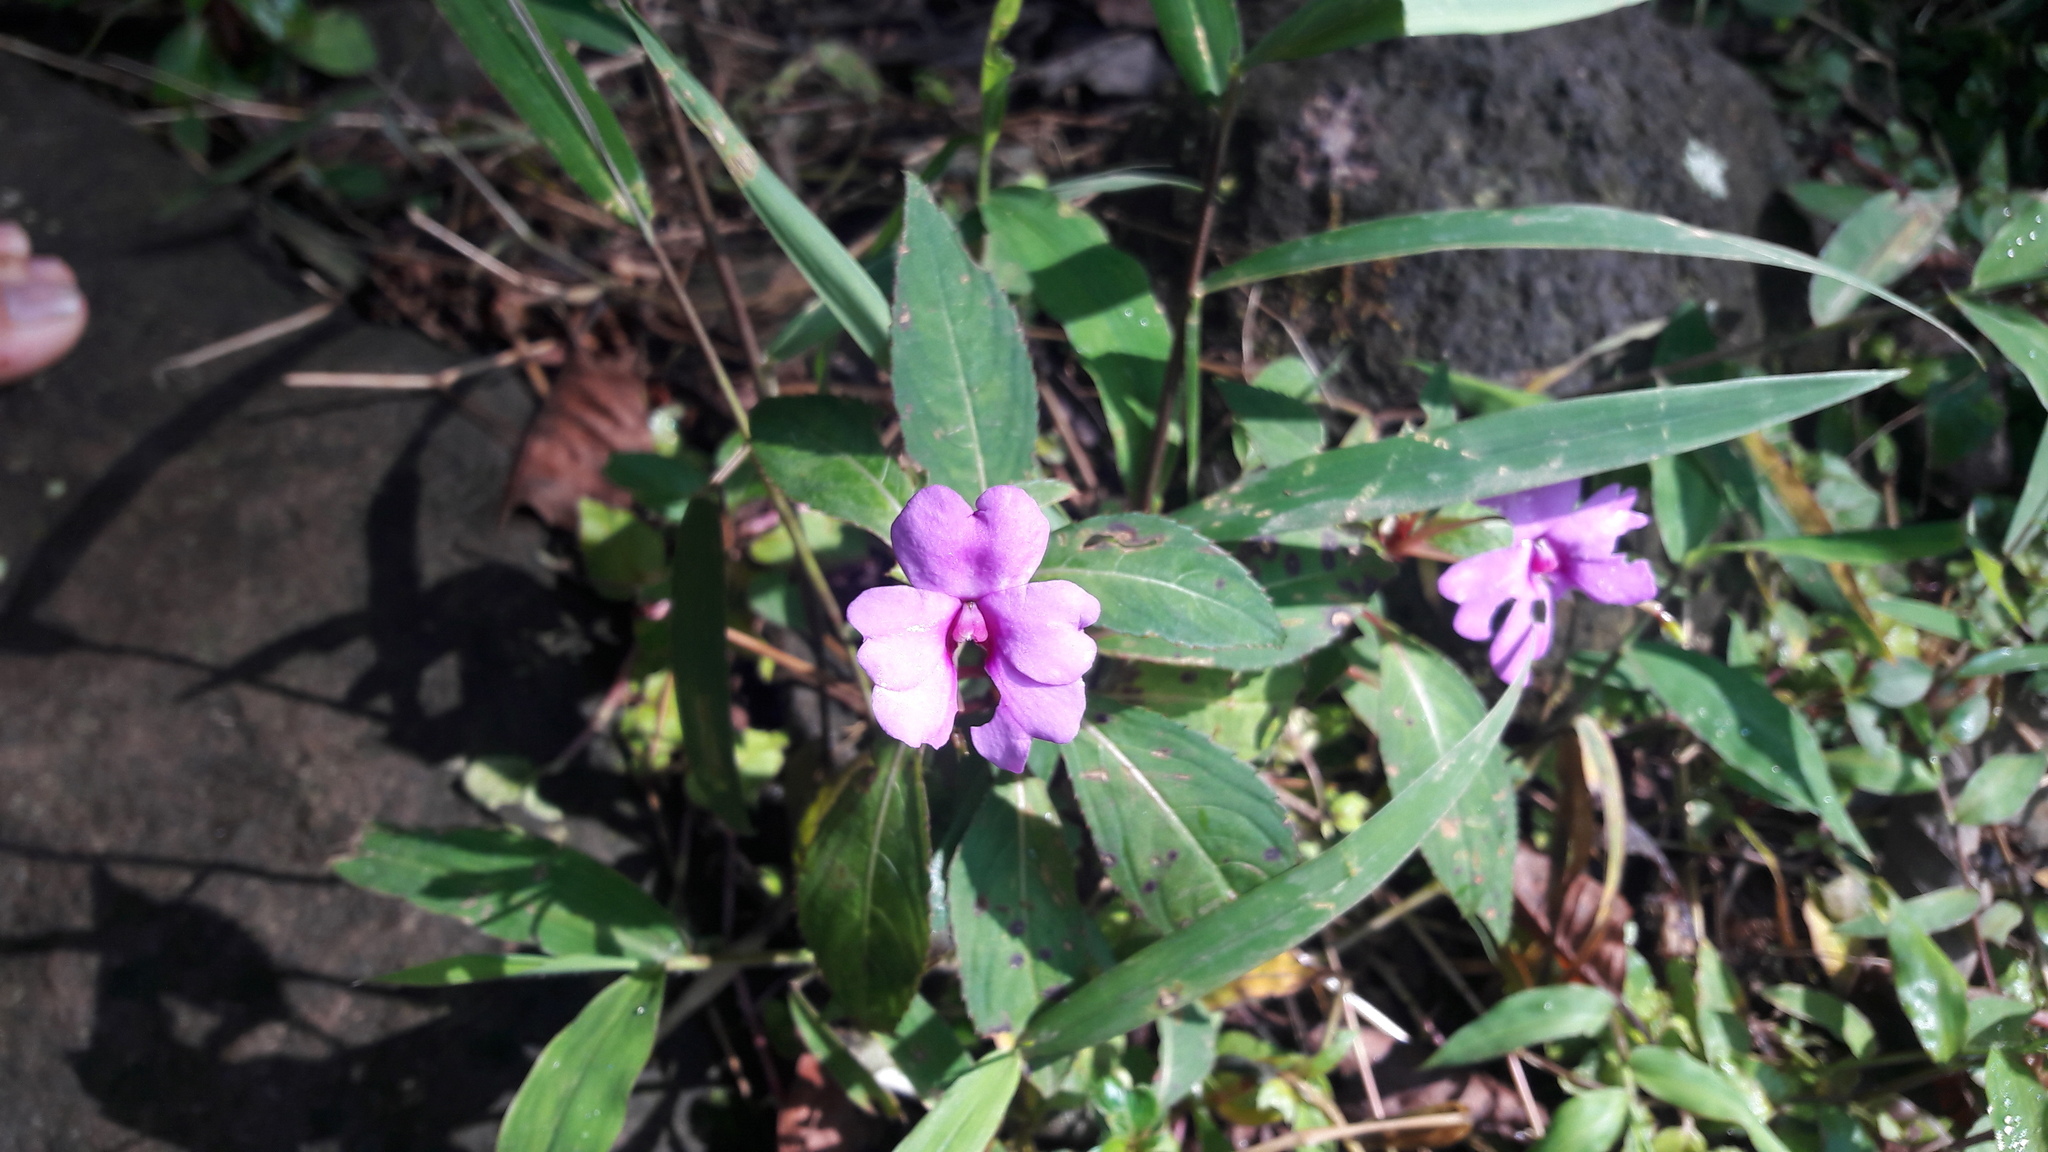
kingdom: Plantae
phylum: Tracheophyta
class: Magnoliopsida
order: Ericales
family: Balsaminaceae
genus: Impatiens
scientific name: Impatiens hawkeri
